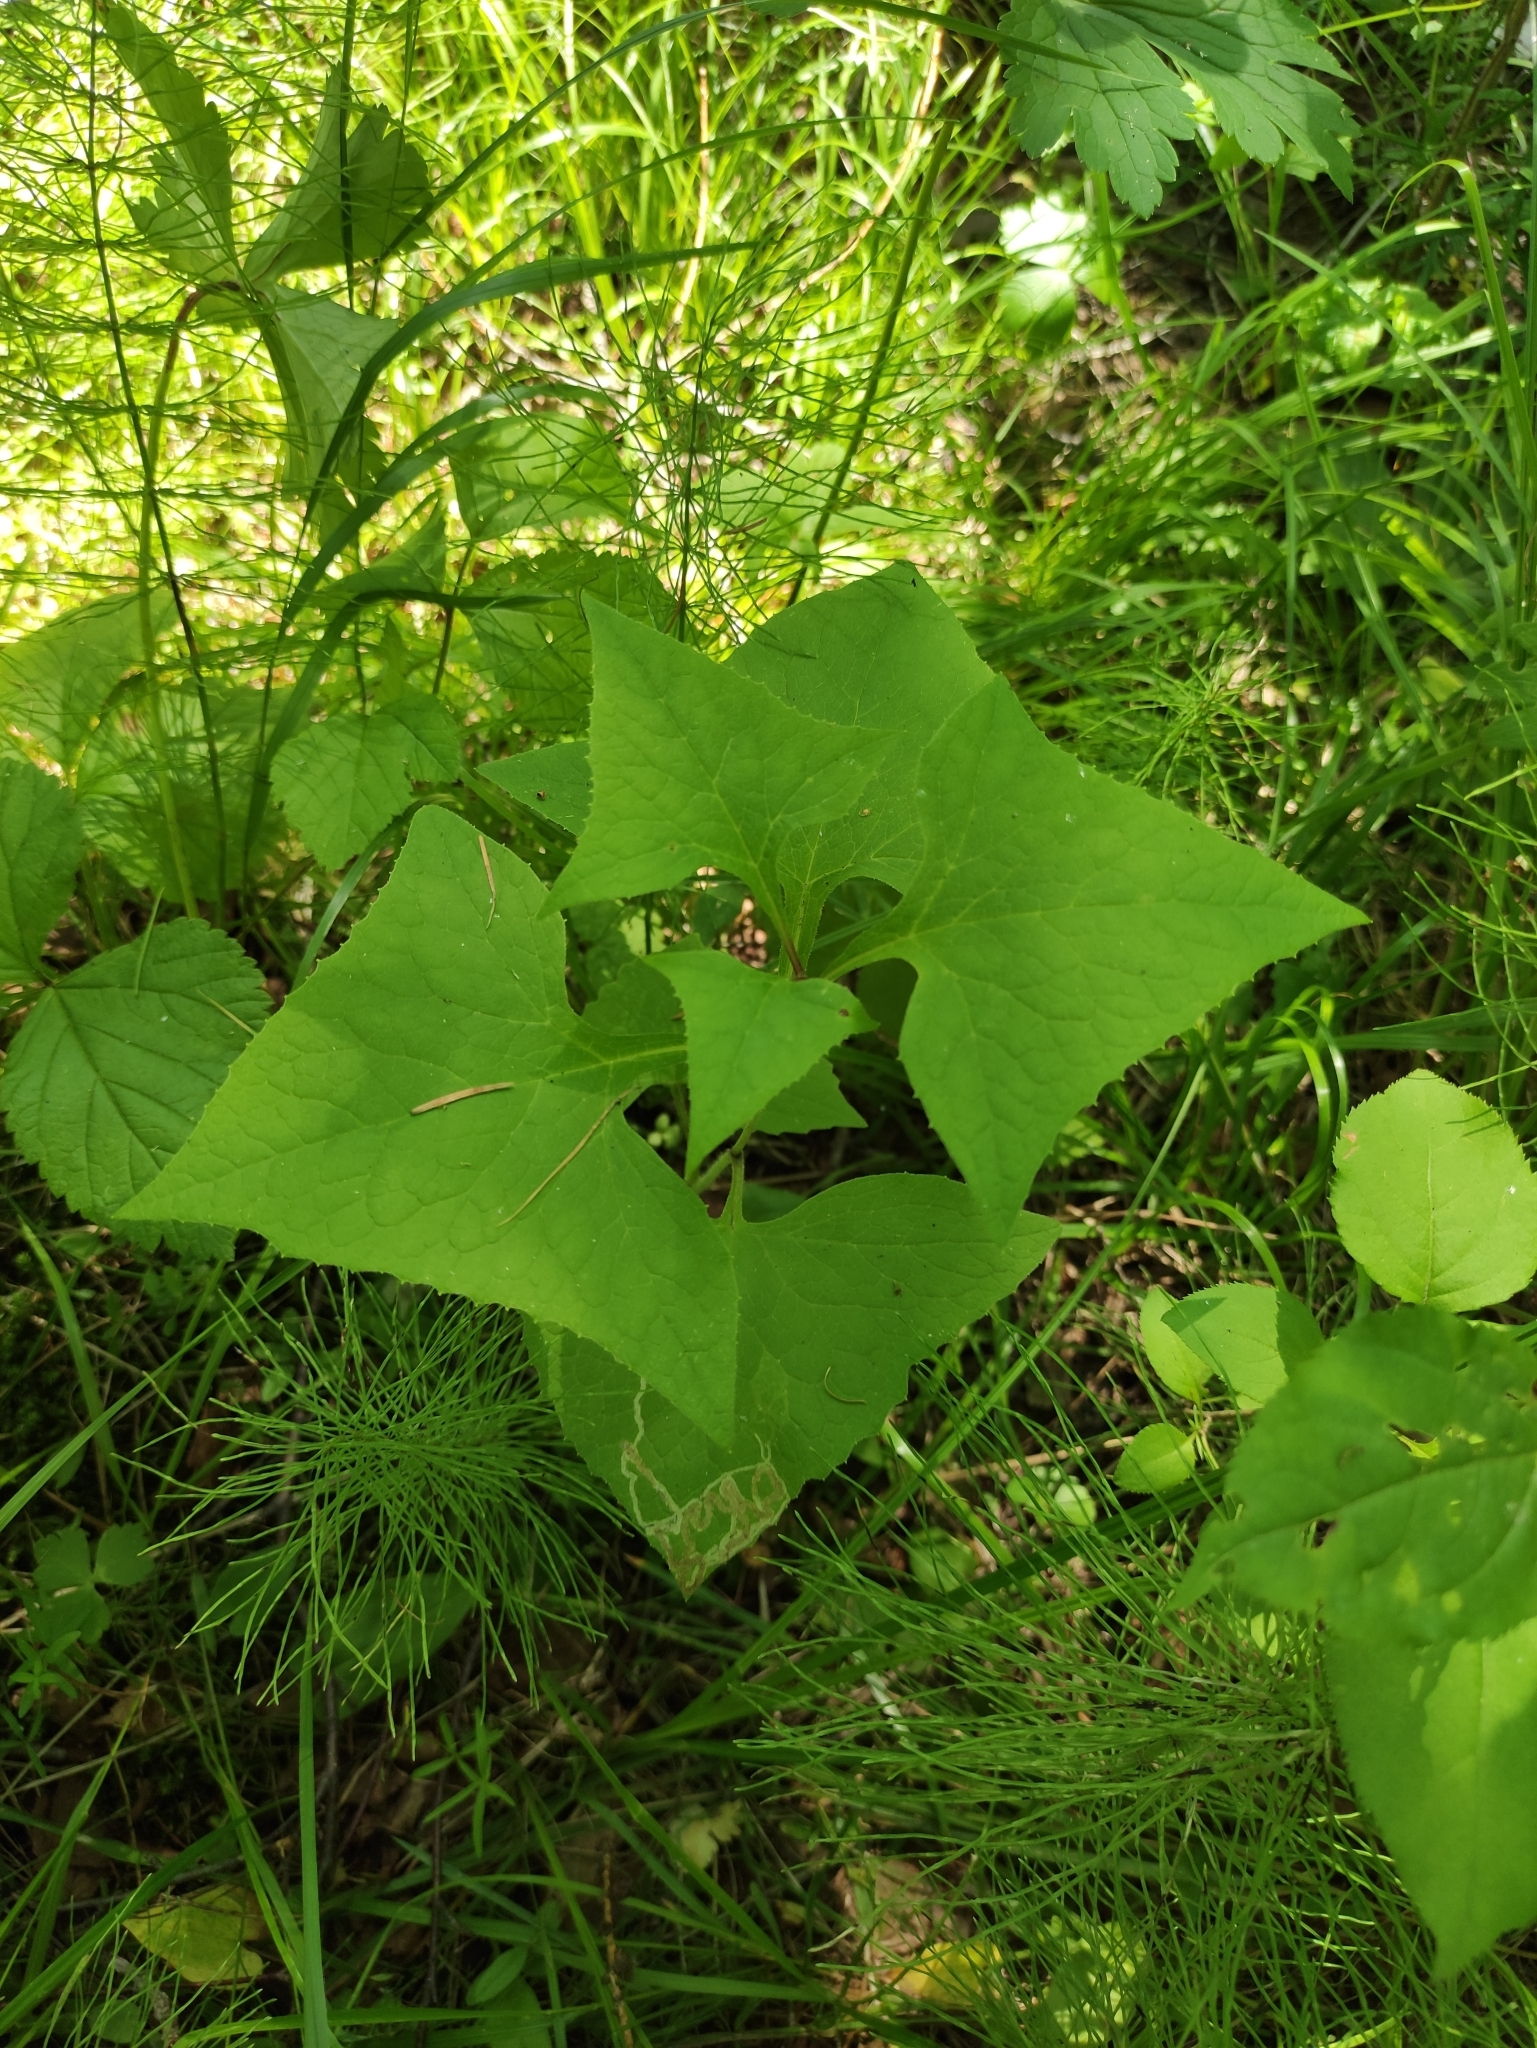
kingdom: Plantae
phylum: Tracheophyta
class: Magnoliopsida
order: Asterales
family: Asteraceae
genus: Parasenecio
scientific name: Parasenecio hastatus
